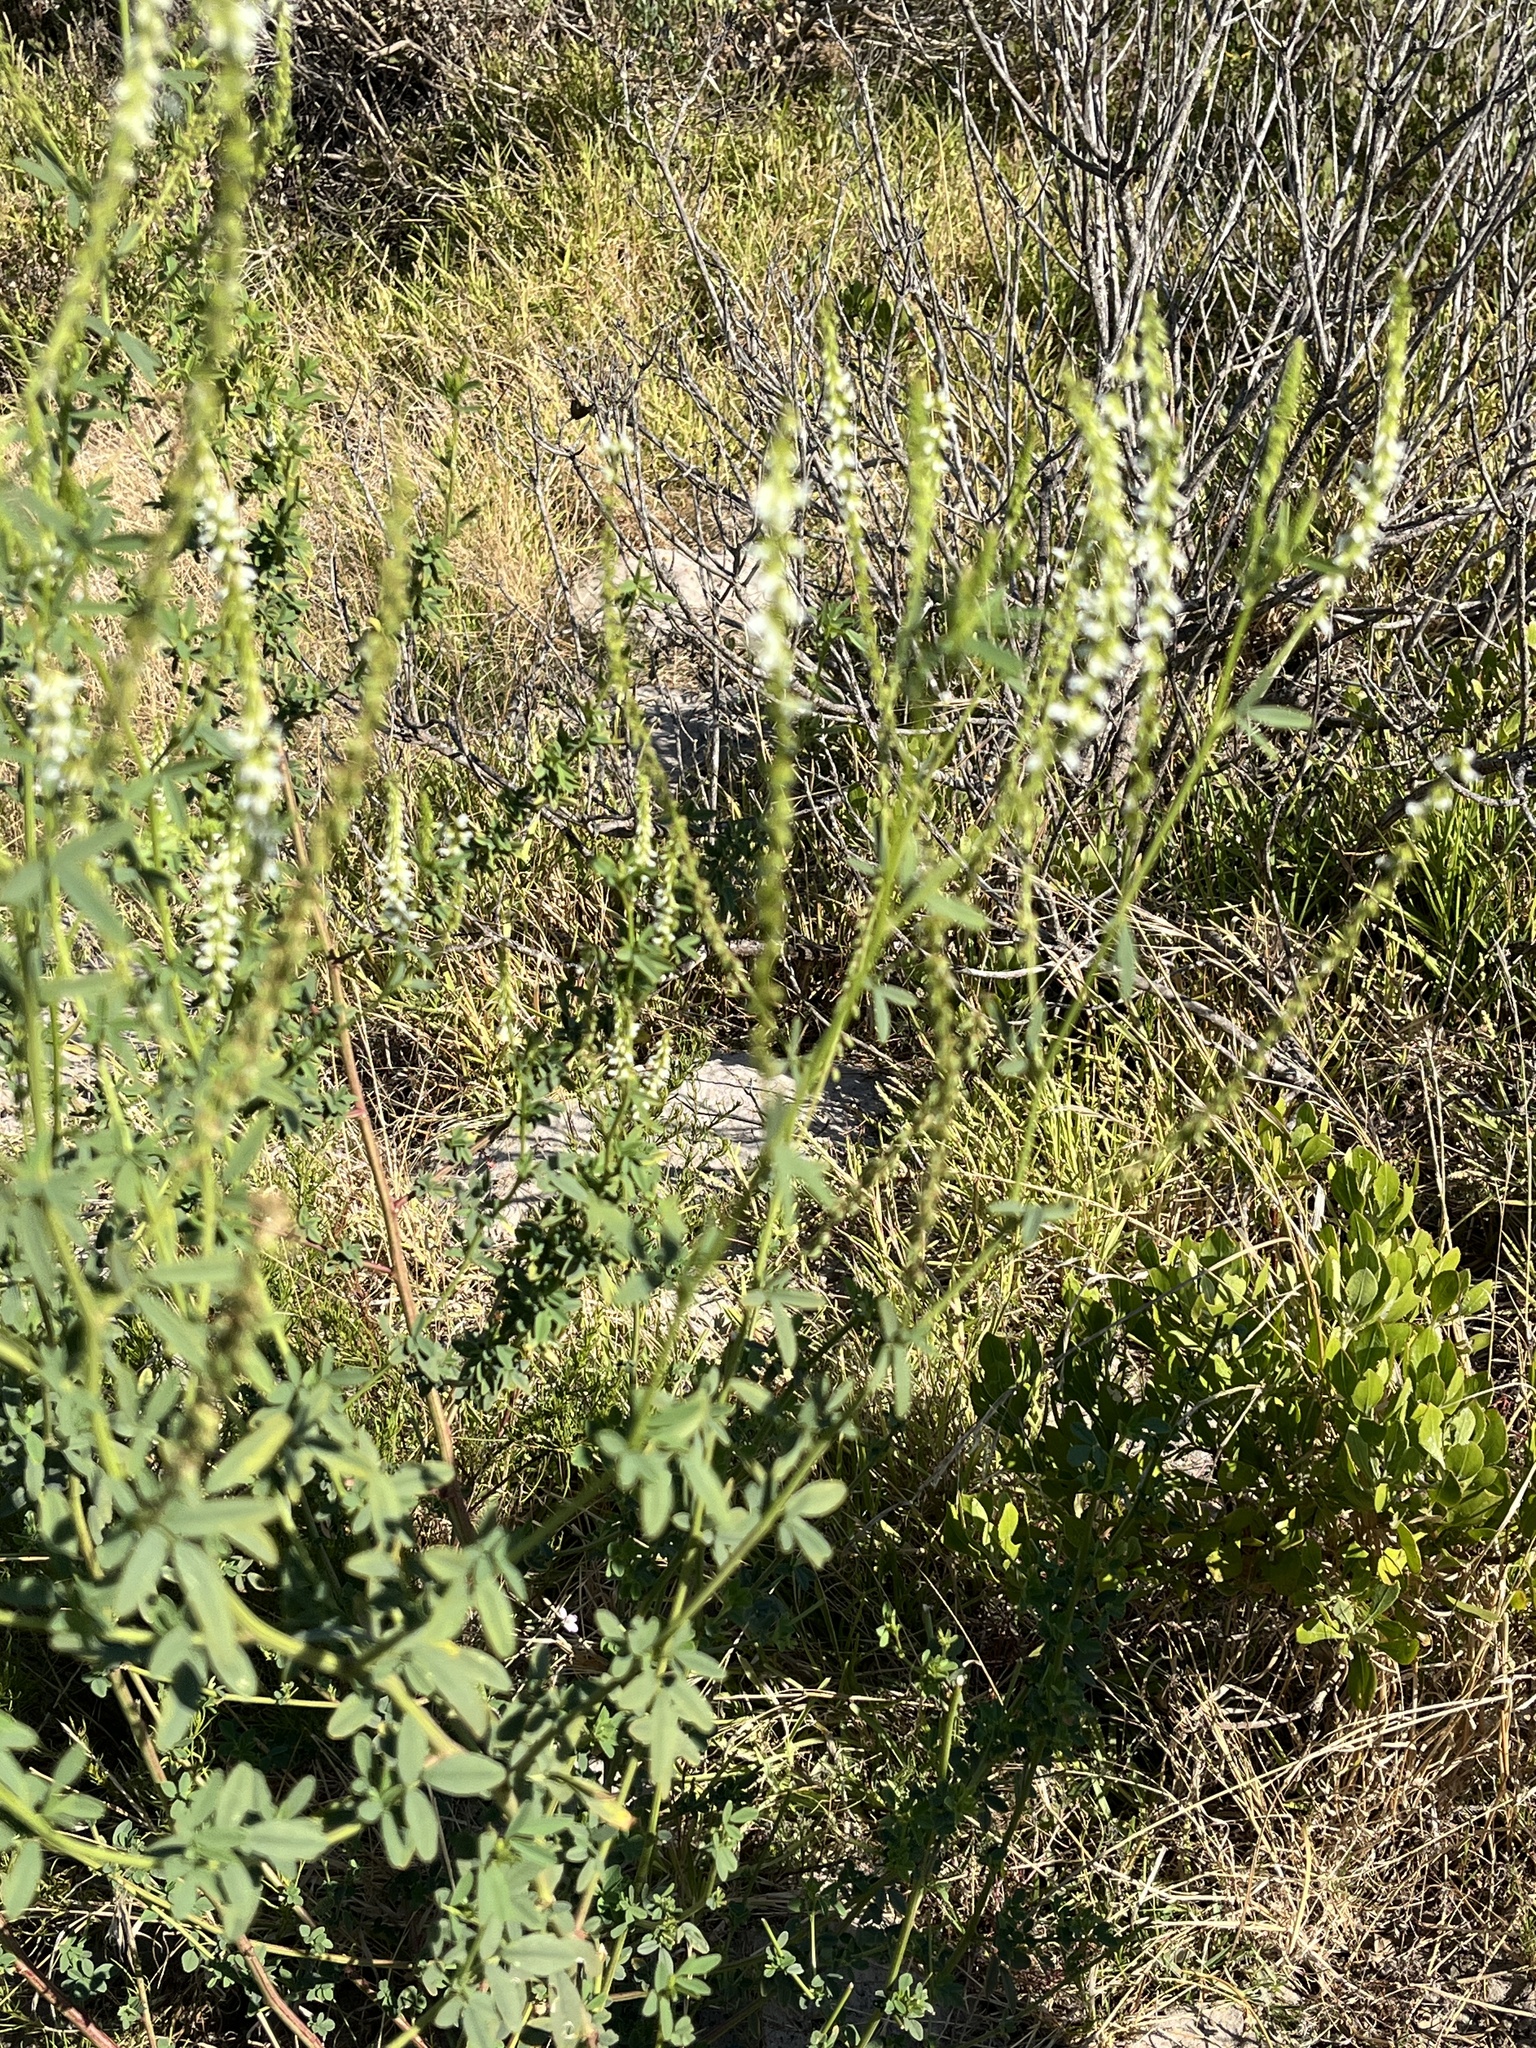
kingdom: Plantae
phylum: Tracheophyta
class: Magnoliopsida
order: Fabales
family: Fabaceae
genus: Melilotus
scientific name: Melilotus albus
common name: White melilot
